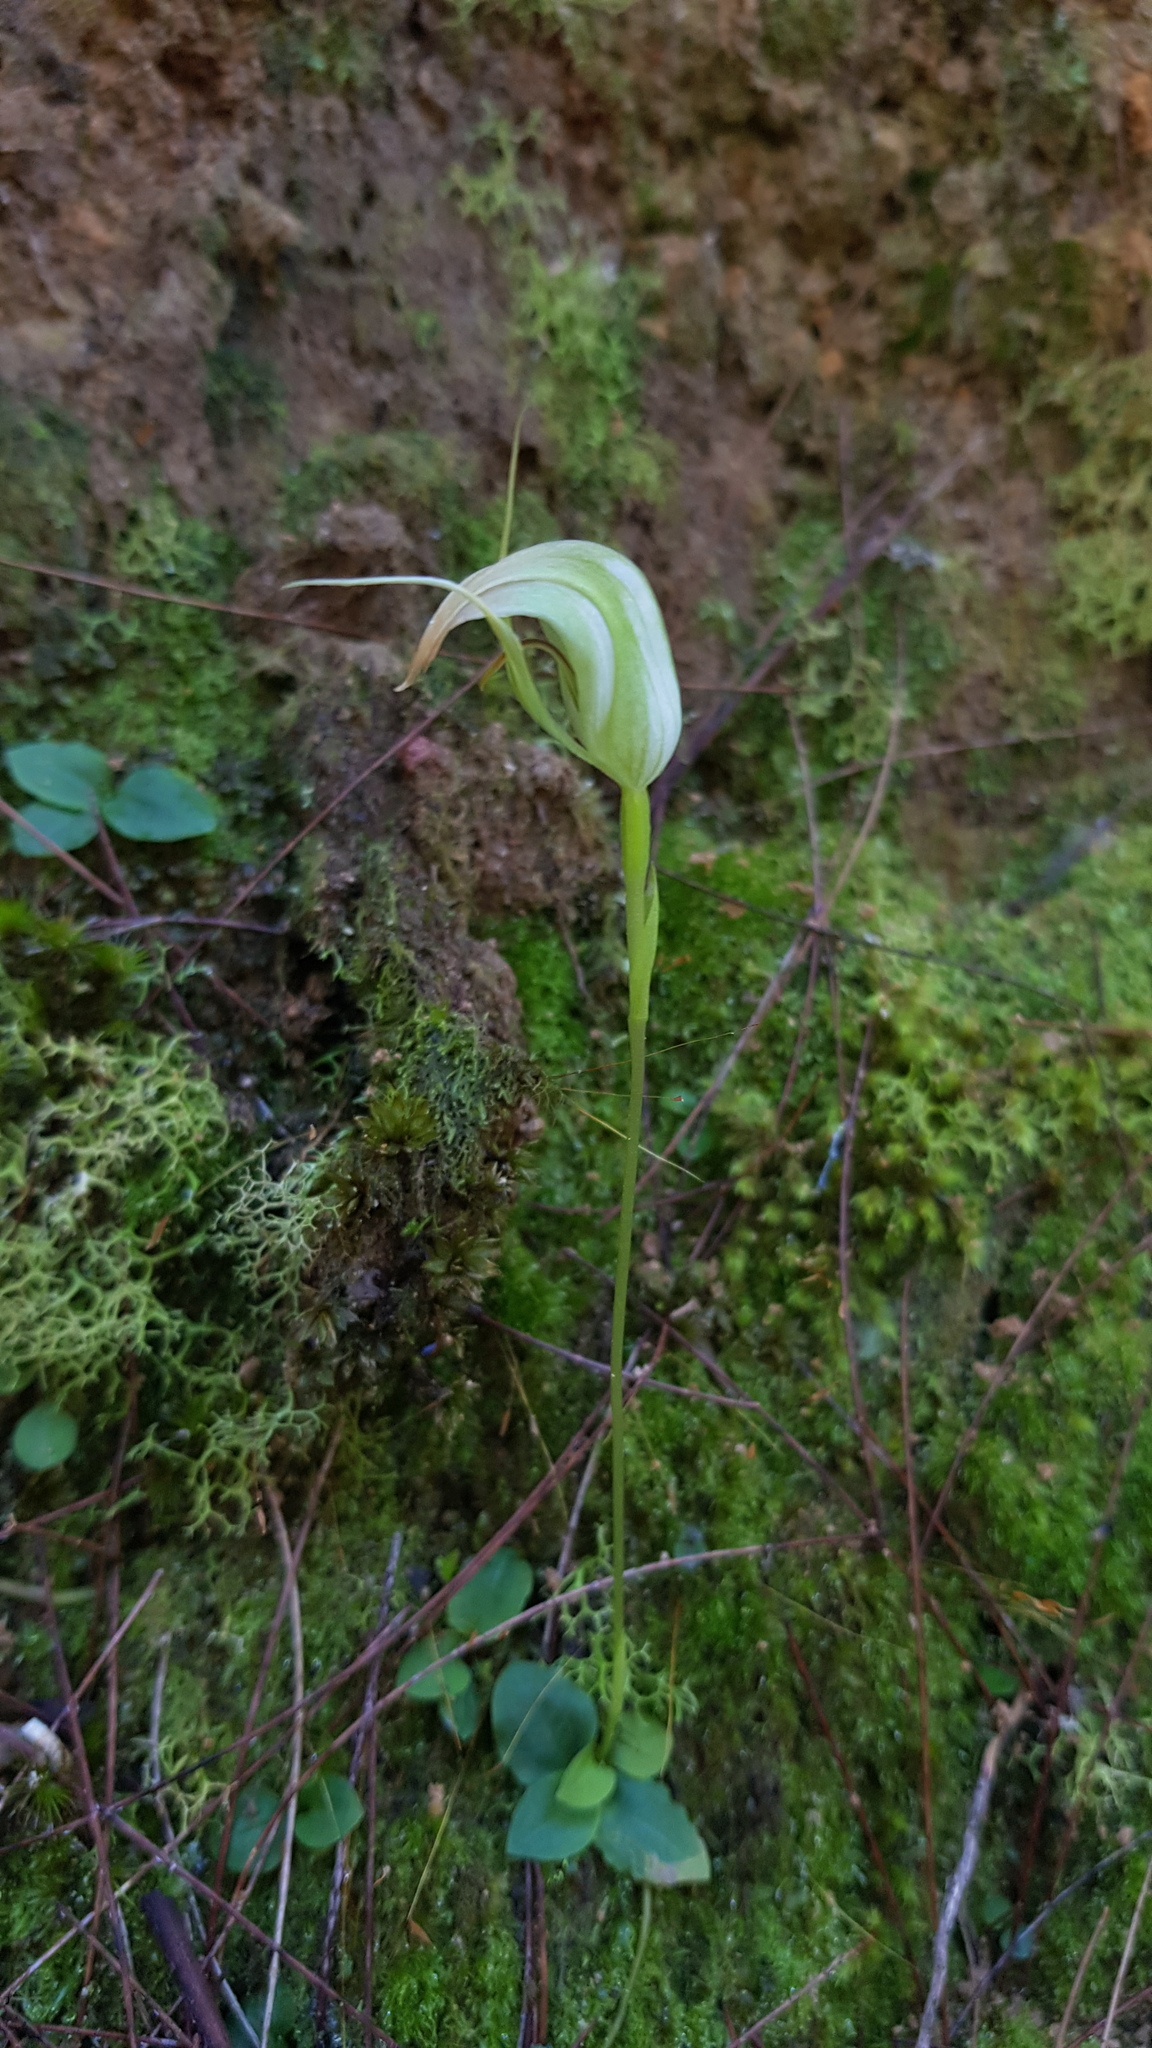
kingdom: Plantae
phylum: Tracheophyta
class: Liliopsida
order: Asparagales
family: Orchidaceae
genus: Pterostylis
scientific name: Pterostylis acuminata
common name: Pointed greenhood
